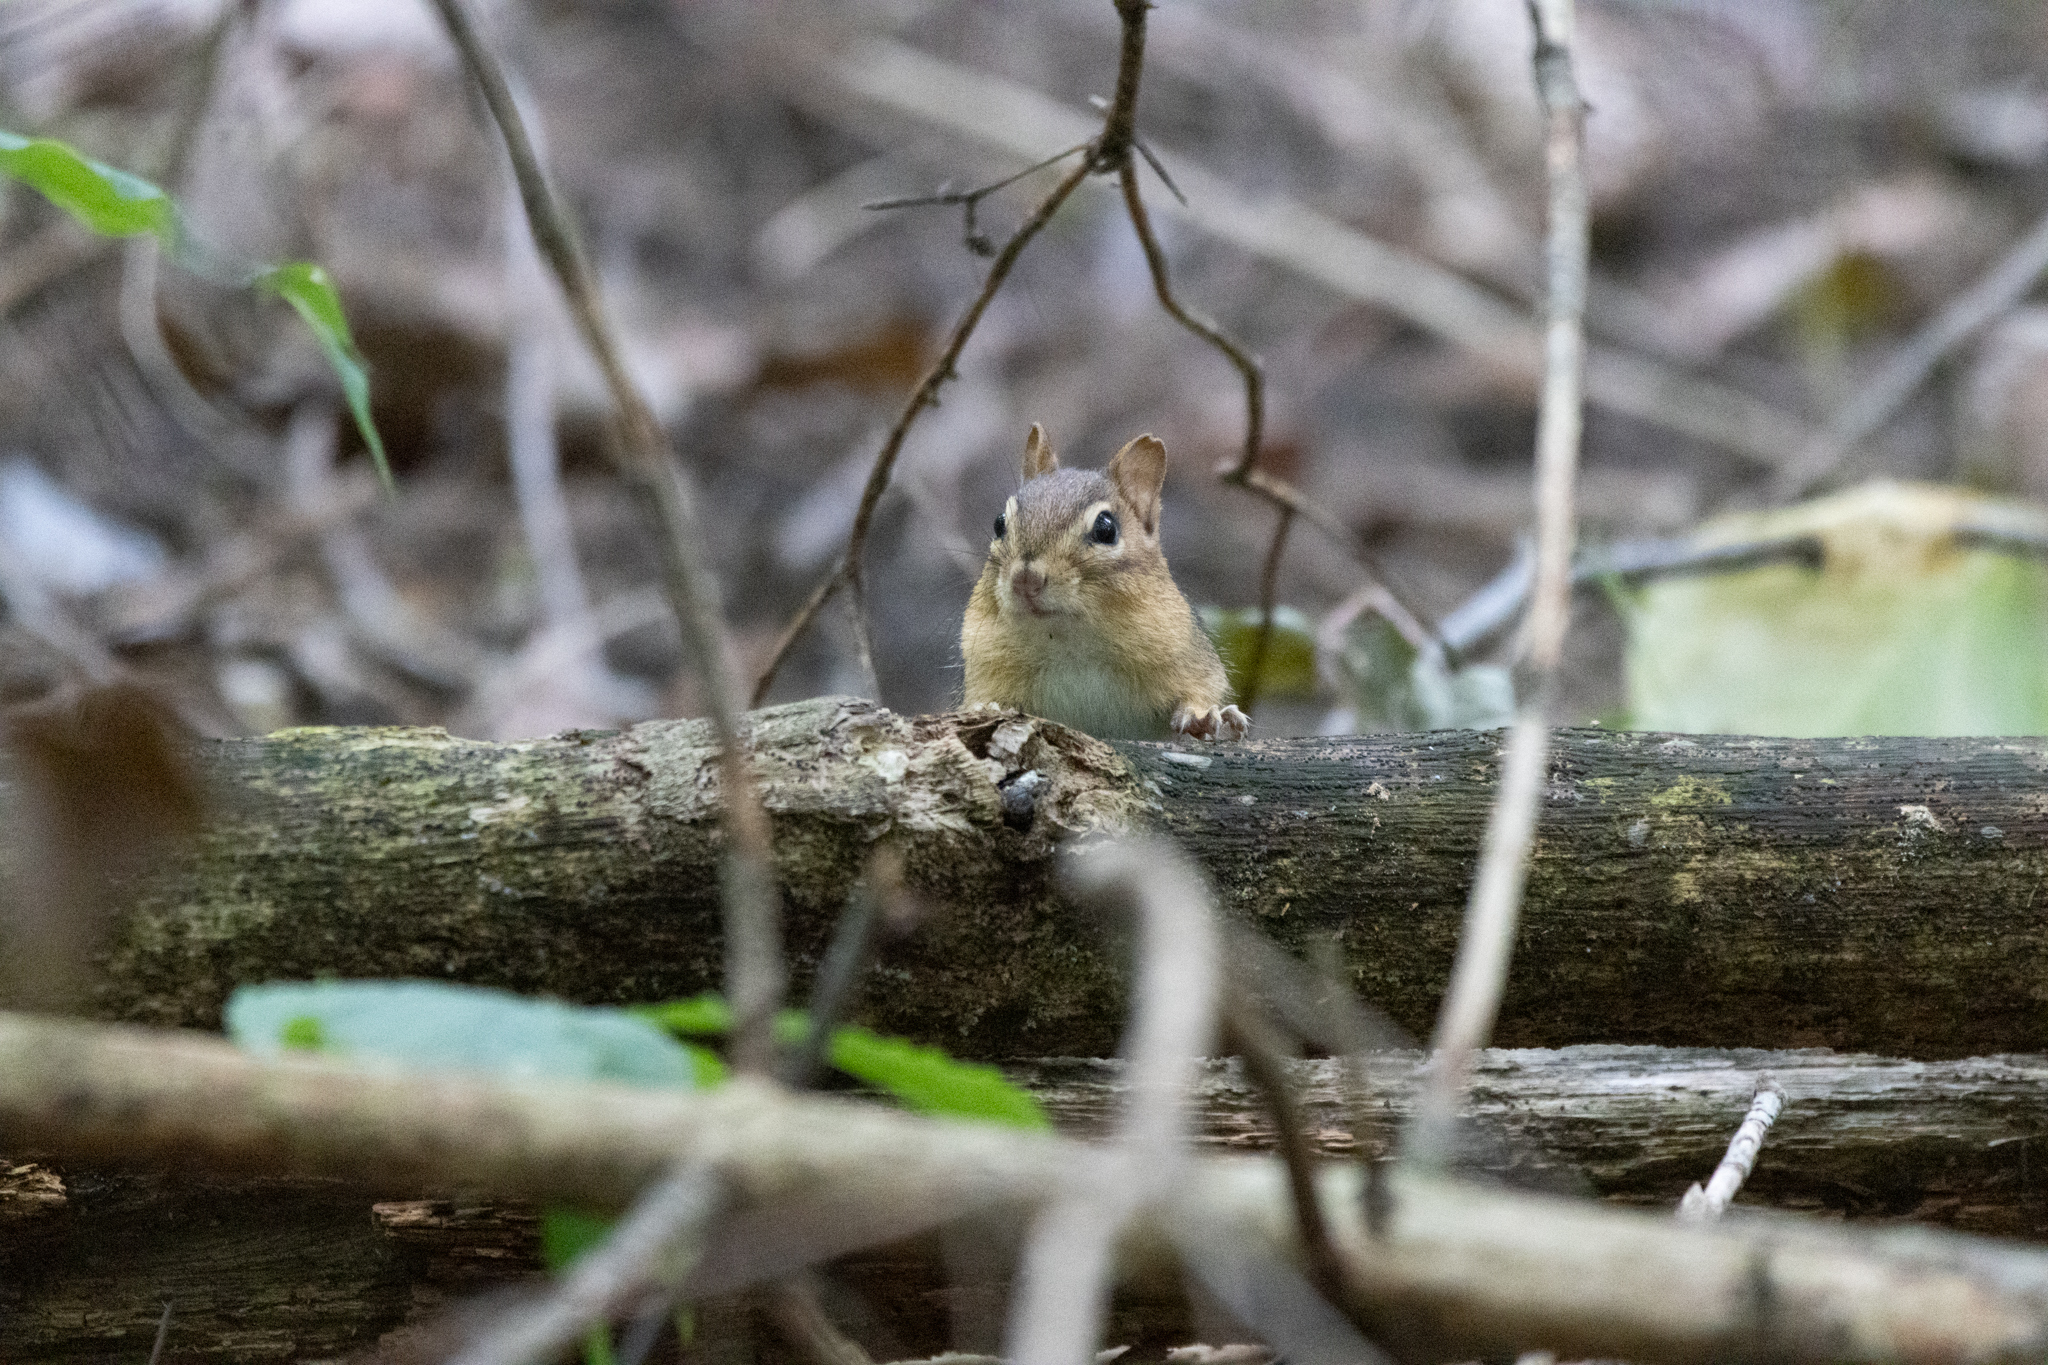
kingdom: Animalia
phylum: Chordata
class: Mammalia
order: Rodentia
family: Sciuridae
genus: Tamias
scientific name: Tamias striatus
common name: Eastern chipmunk
